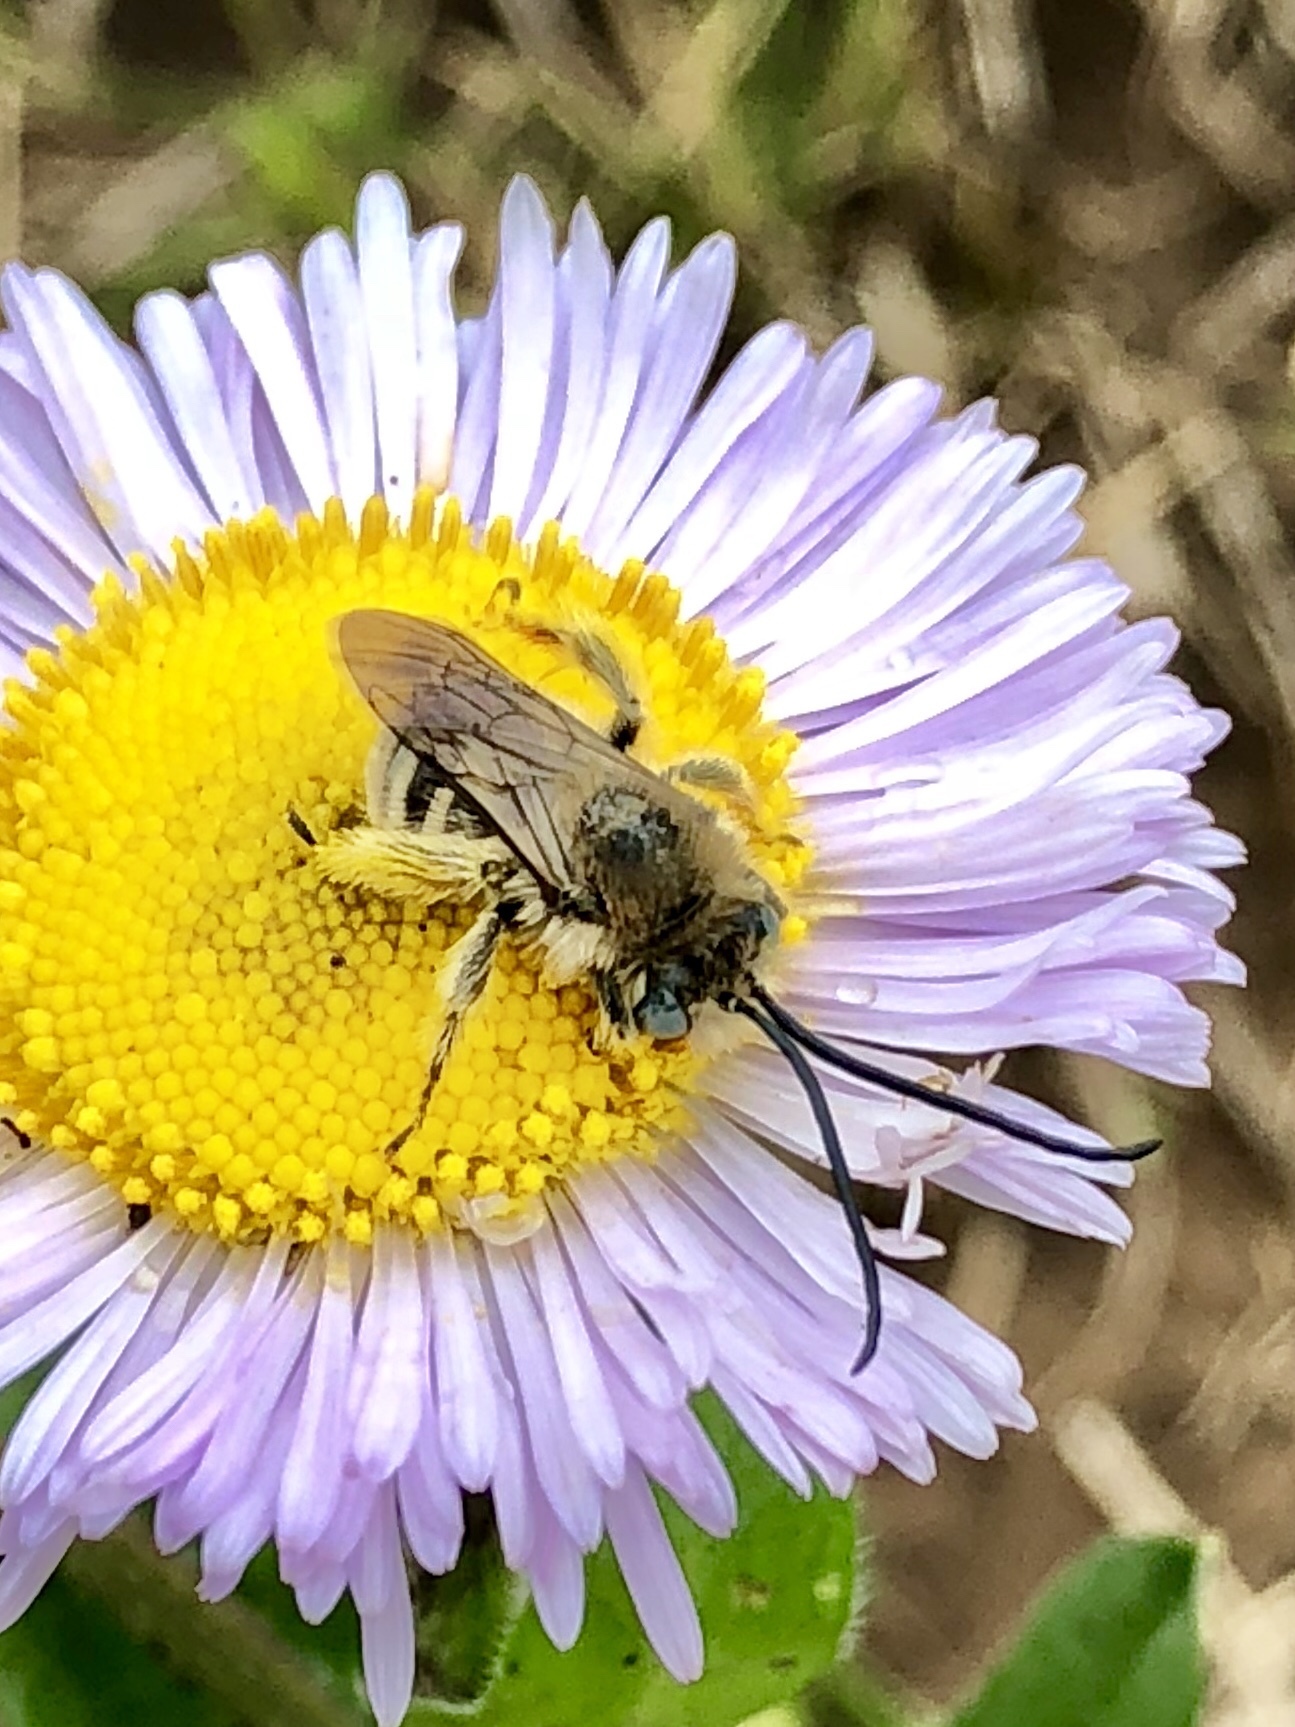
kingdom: Animalia
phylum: Arthropoda
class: Insecta
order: Hymenoptera
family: Apidae
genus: Melissodes
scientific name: Melissodes
